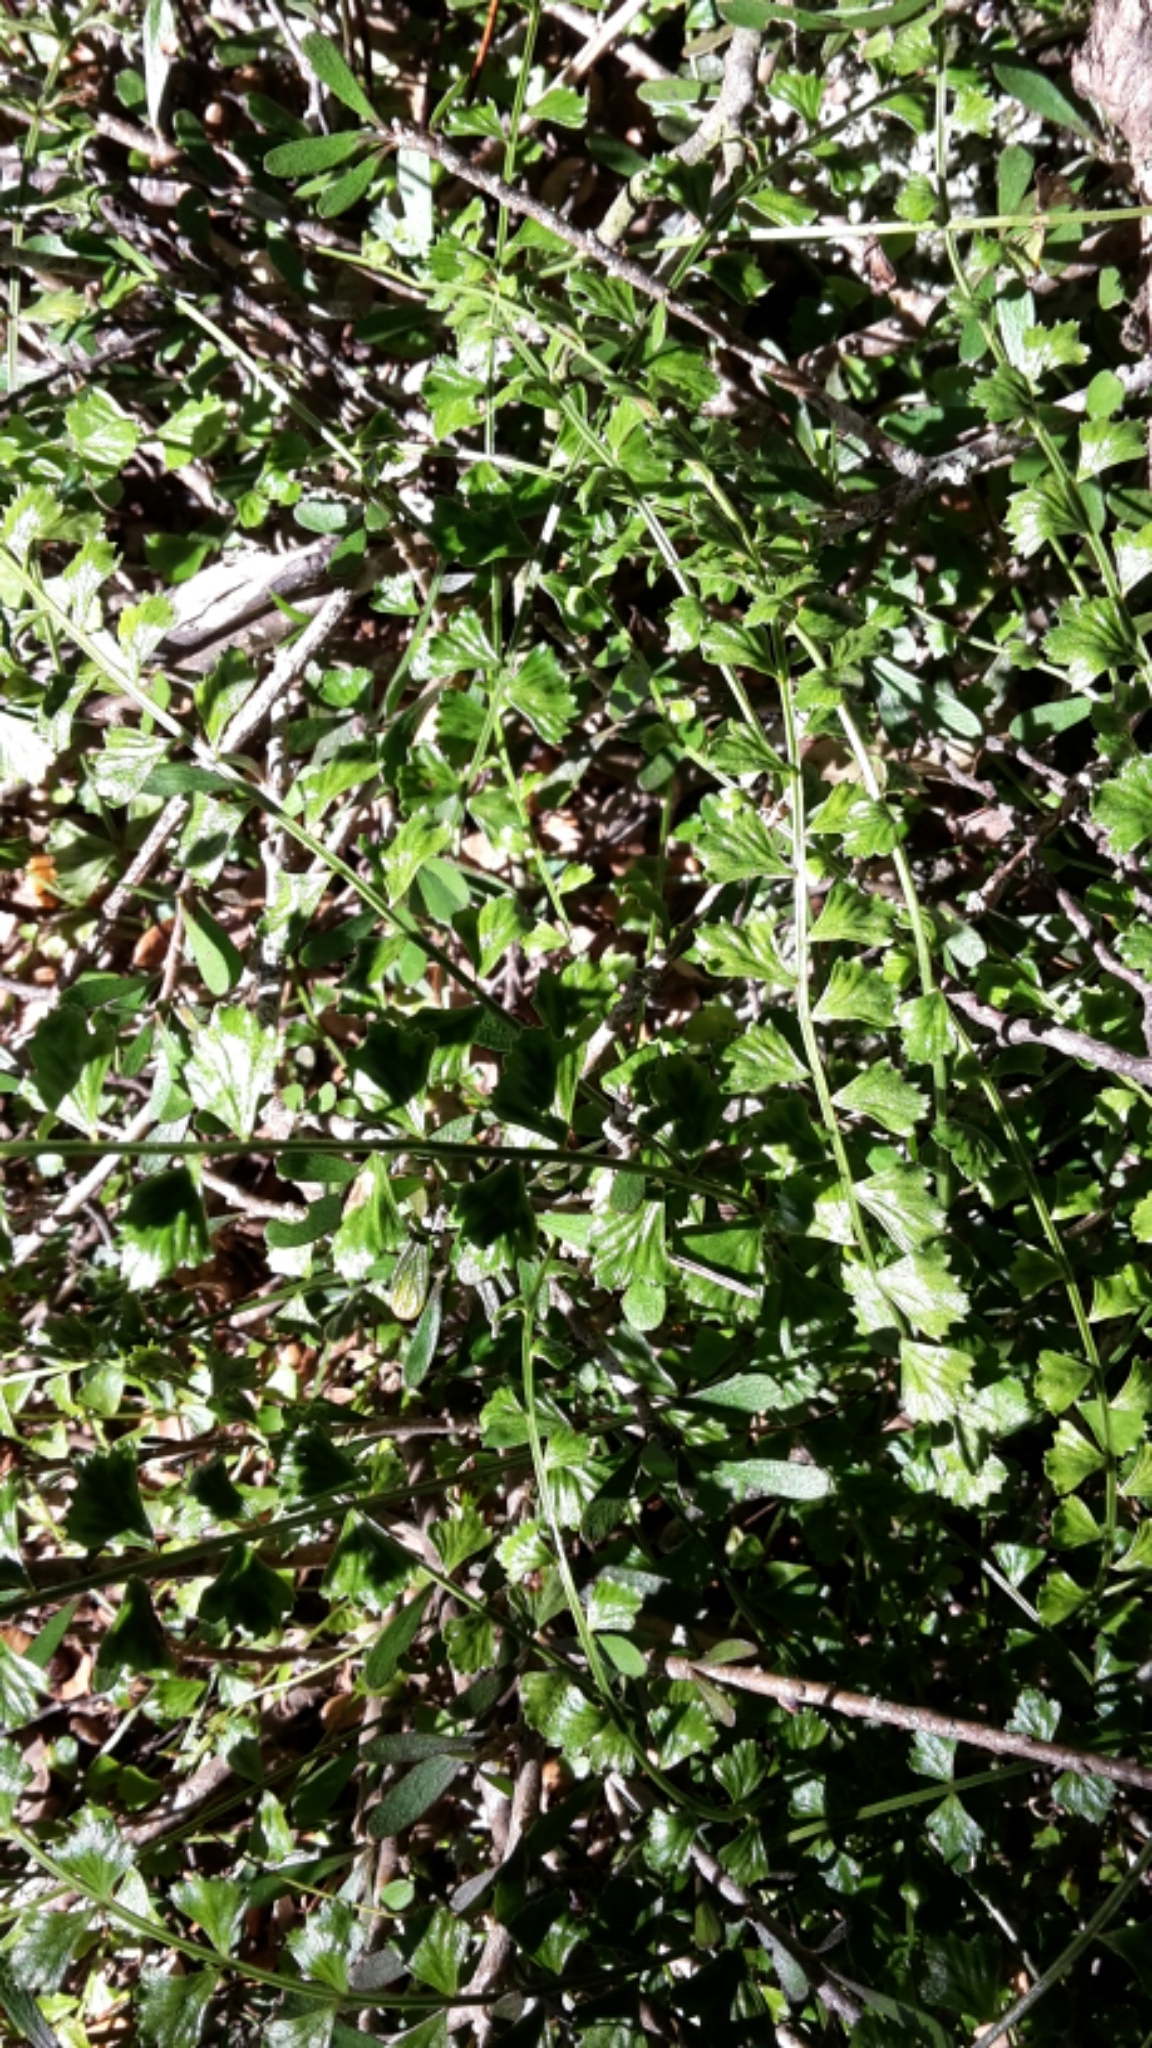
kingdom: Plantae
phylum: Tracheophyta
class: Polypodiopsida
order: Polypodiales
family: Aspleniaceae
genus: Asplenium
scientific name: Asplenium flabellifolium
